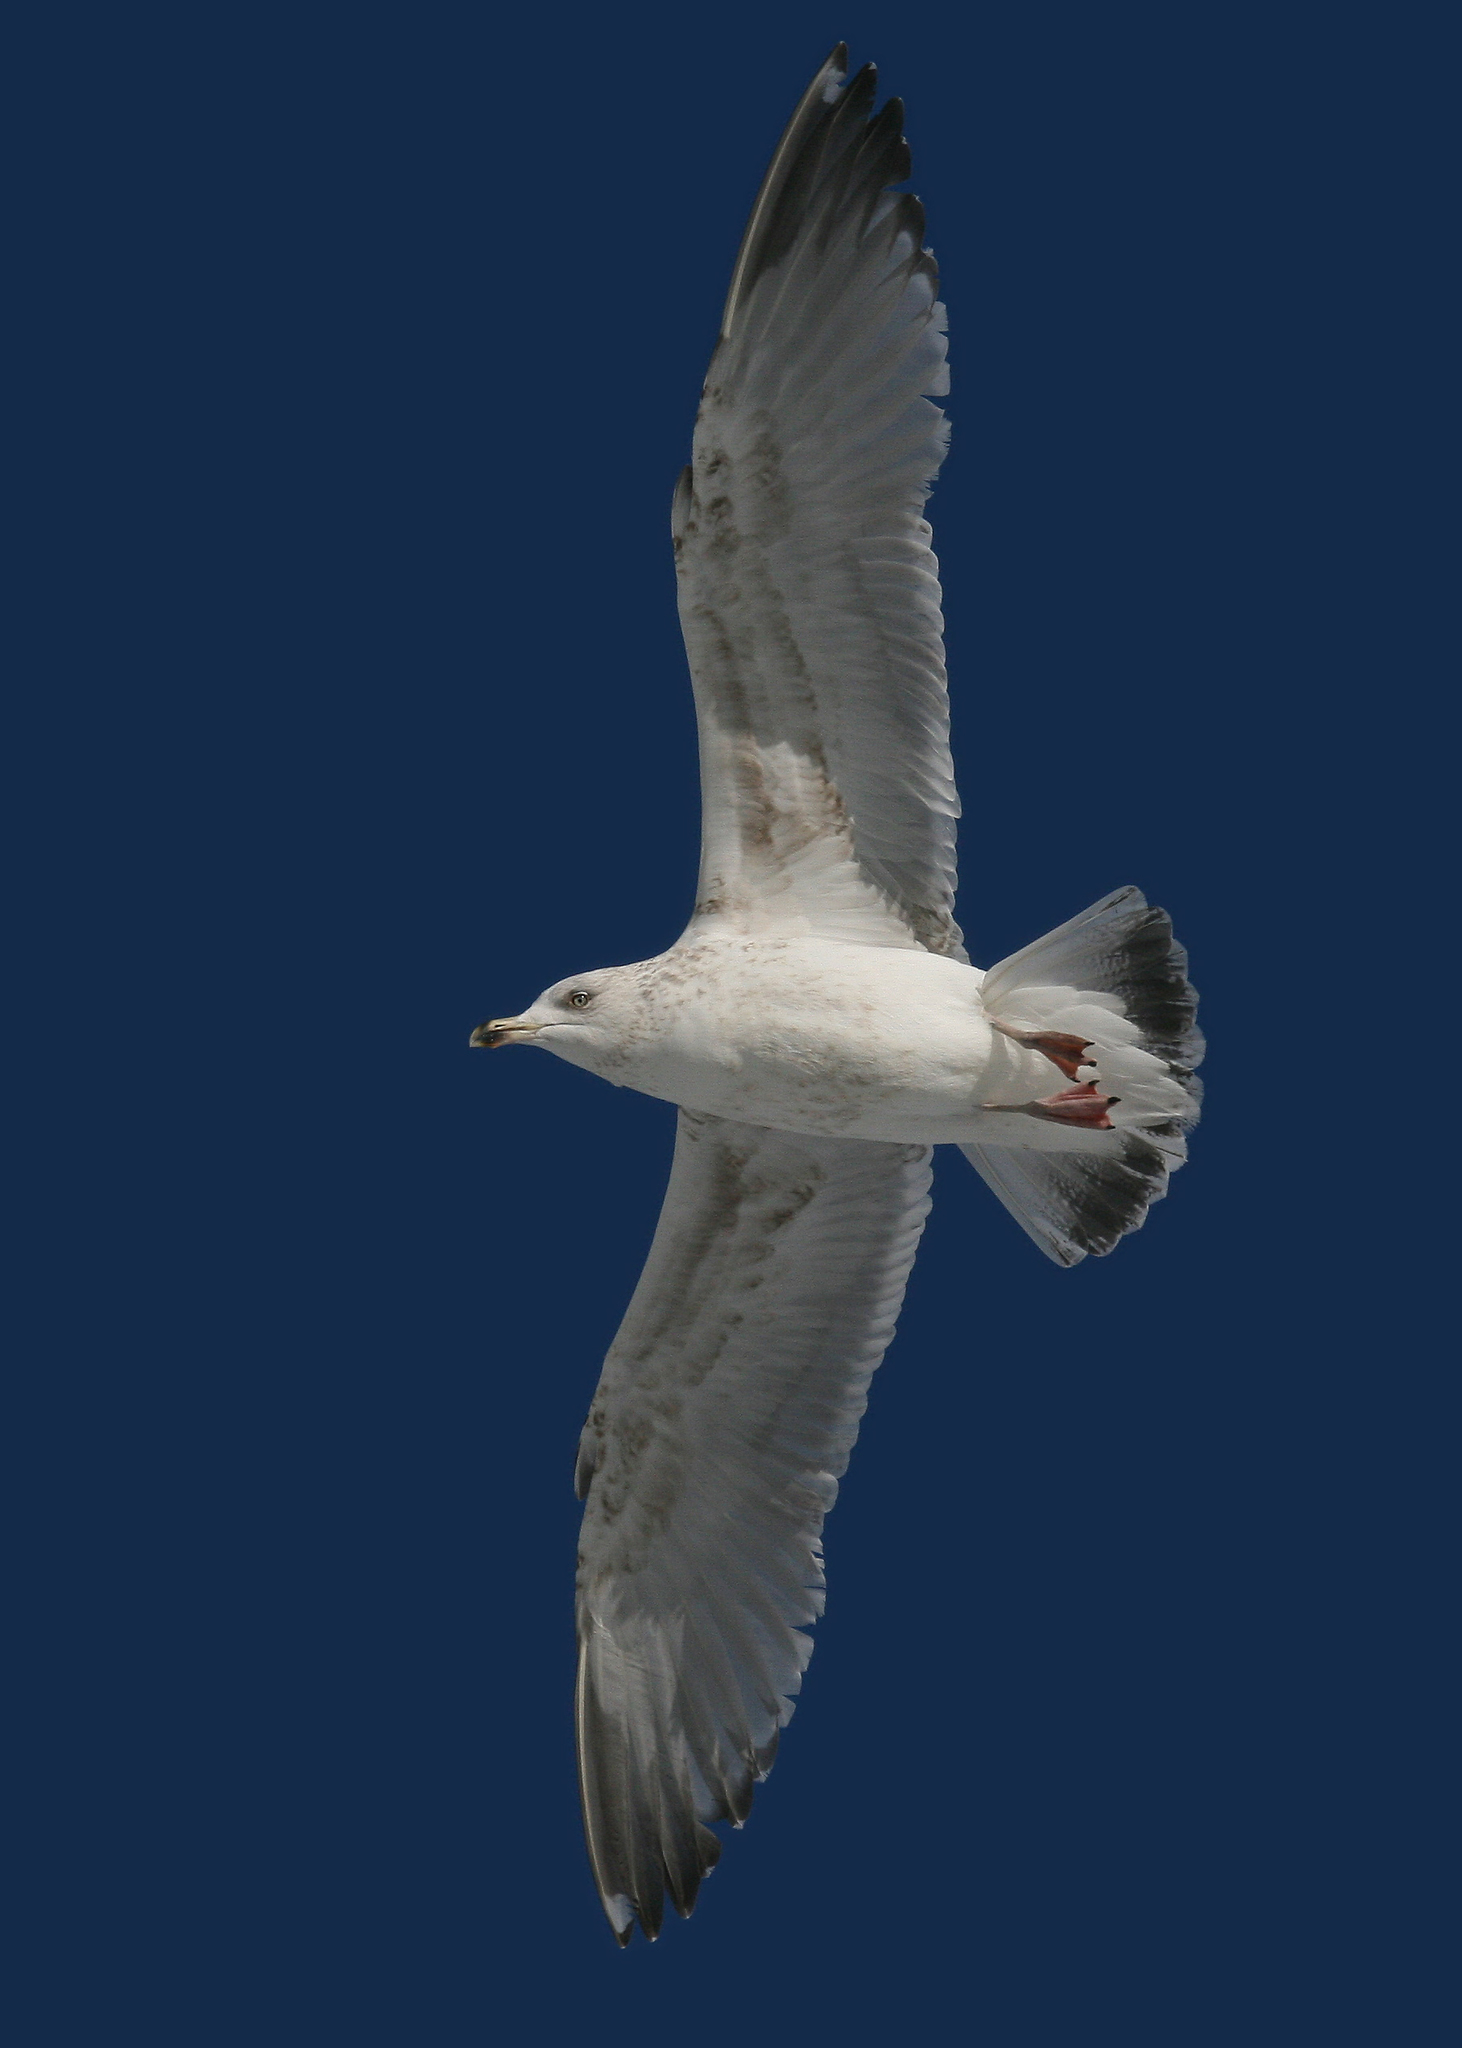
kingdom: Animalia
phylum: Chordata
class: Aves
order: Charadriiformes
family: Laridae
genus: Larus
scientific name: Larus argentatus
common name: Herring gull
